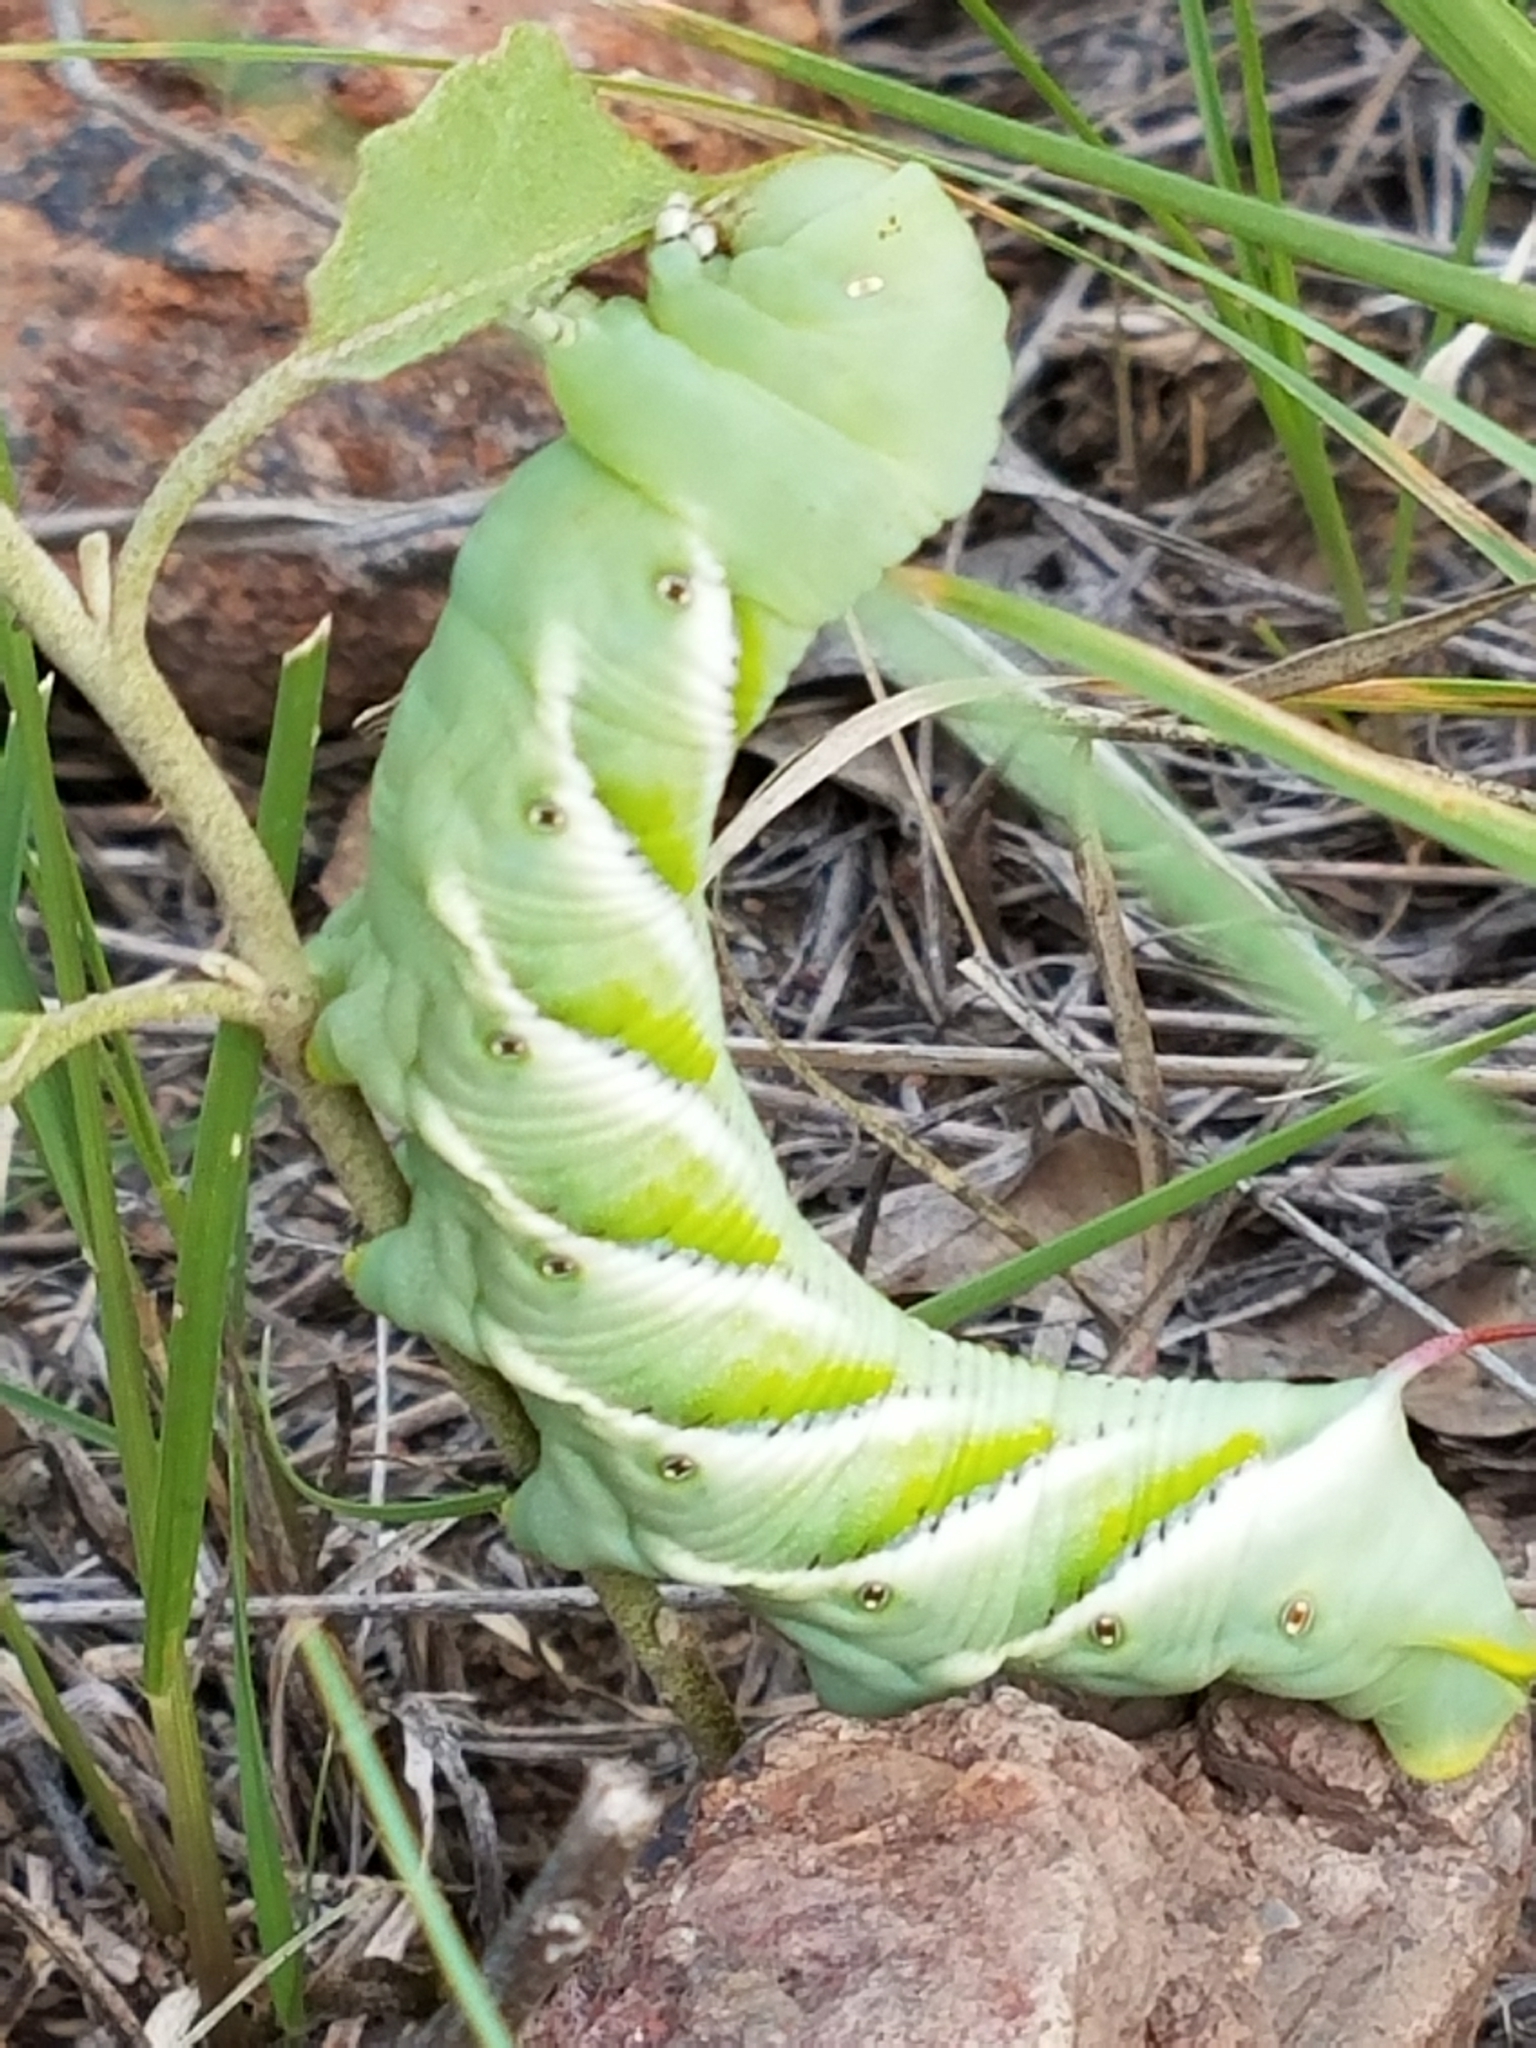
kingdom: Animalia
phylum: Arthropoda
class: Insecta
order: Lepidoptera
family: Sphingidae
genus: Manduca
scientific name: Manduca sexta
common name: Carolina sphinx
